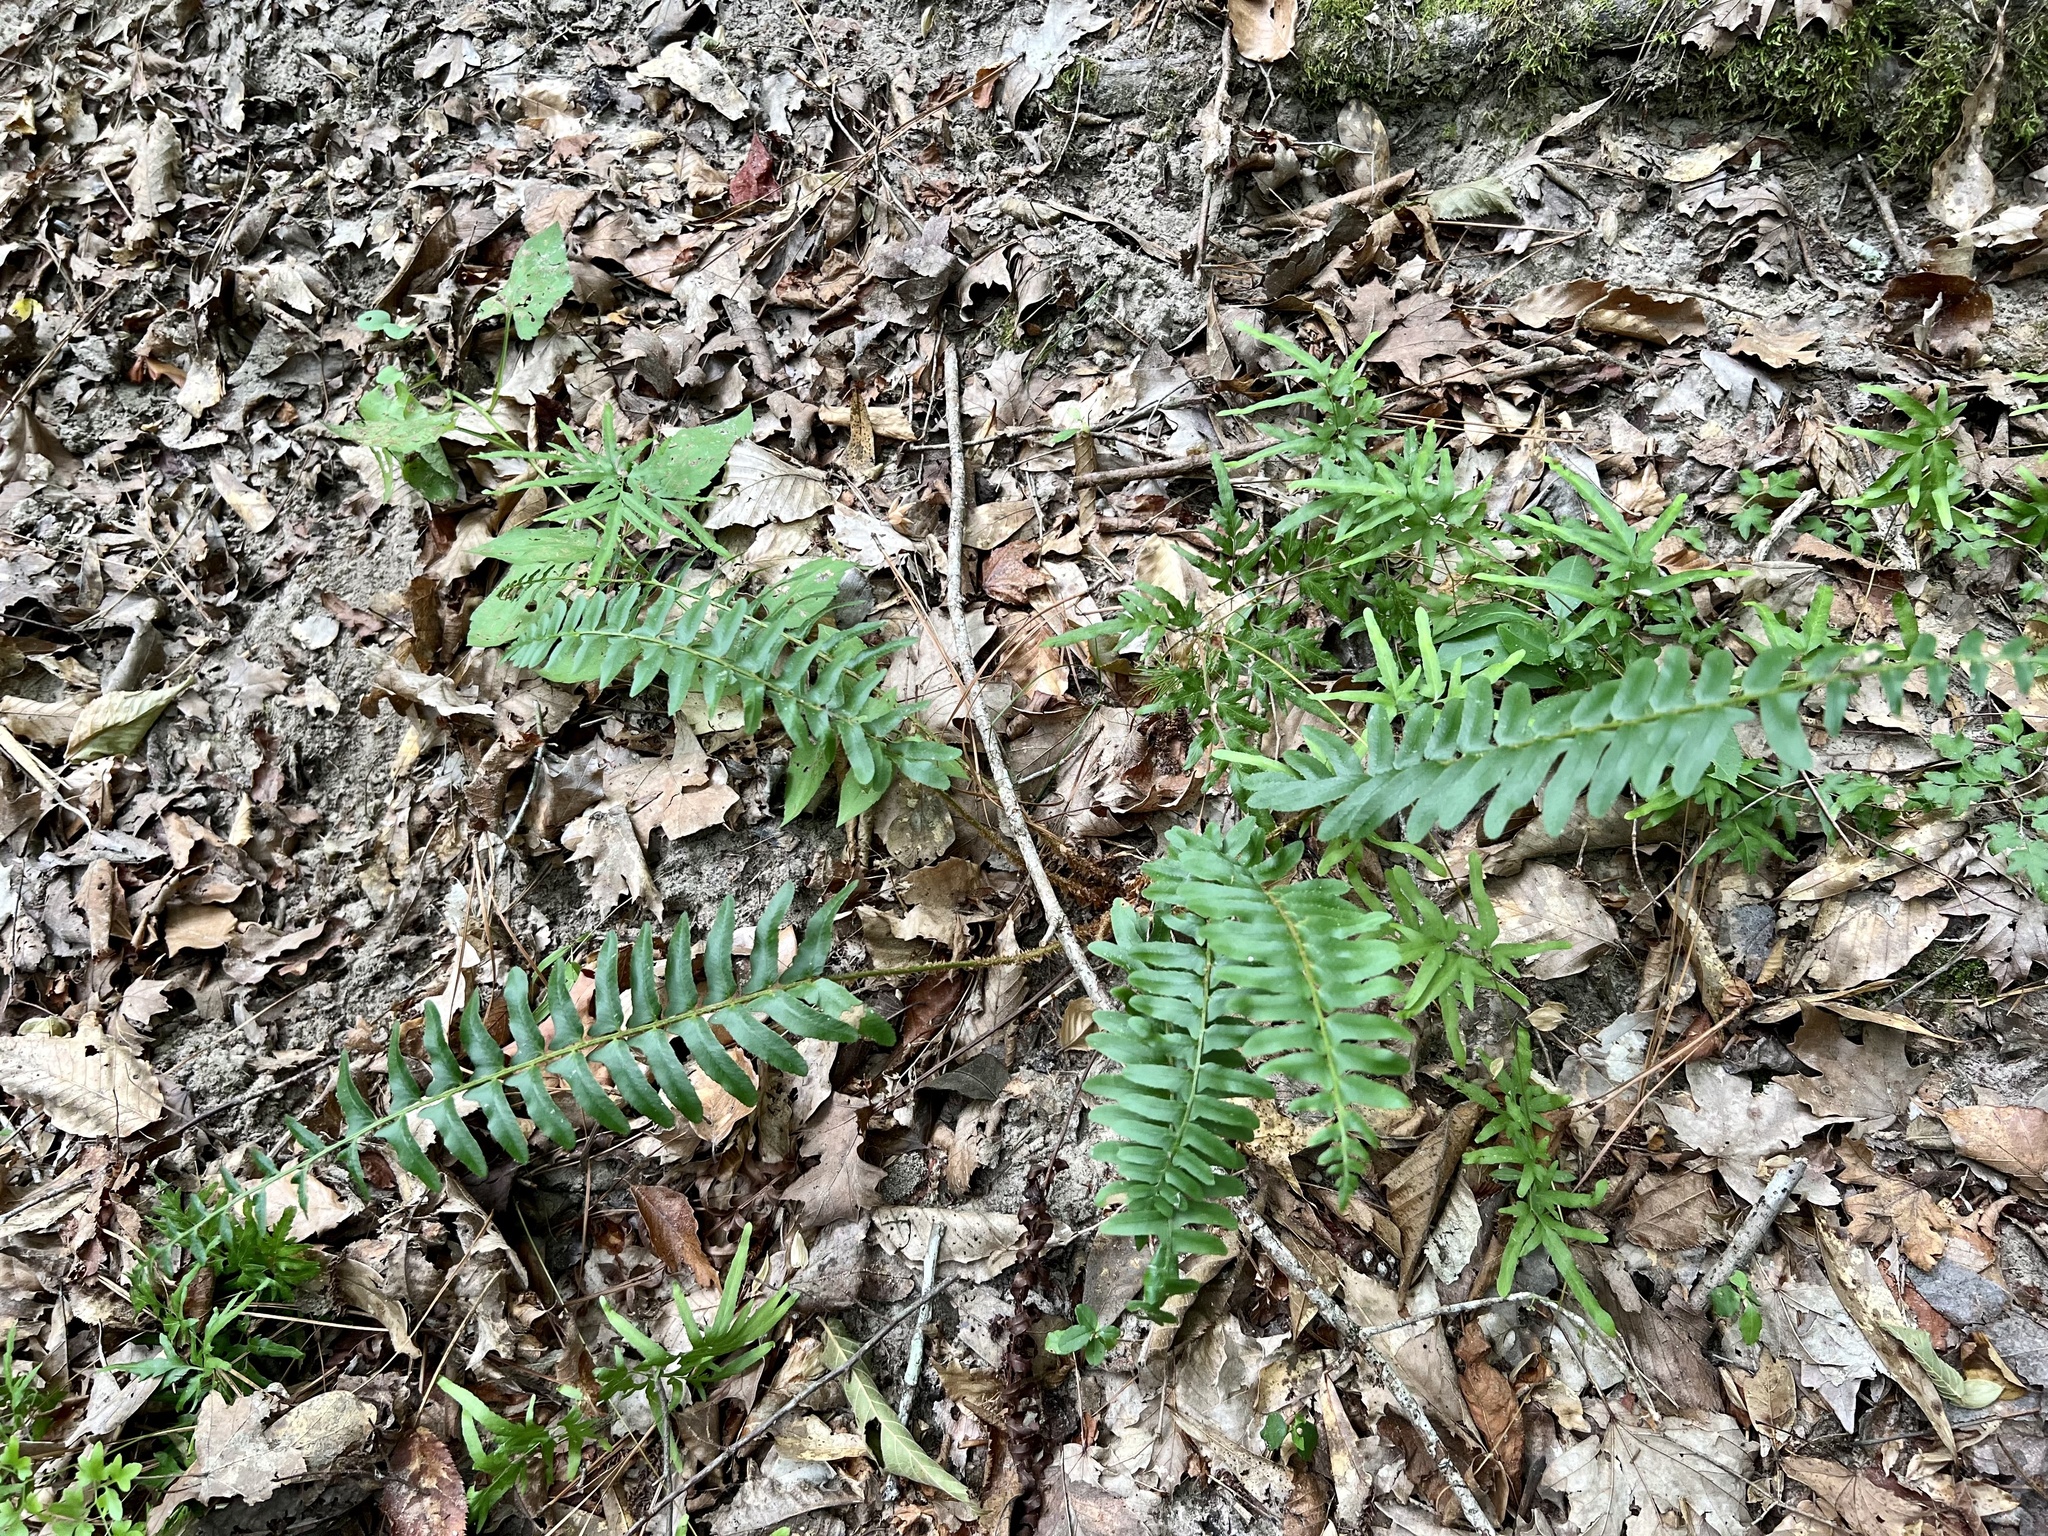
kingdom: Plantae
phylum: Tracheophyta
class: Polypodiopsida
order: Polypodiales
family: Dryopteridaceae
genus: Polystichum
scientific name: Polystichum acrostichoides
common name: Christmas fern
